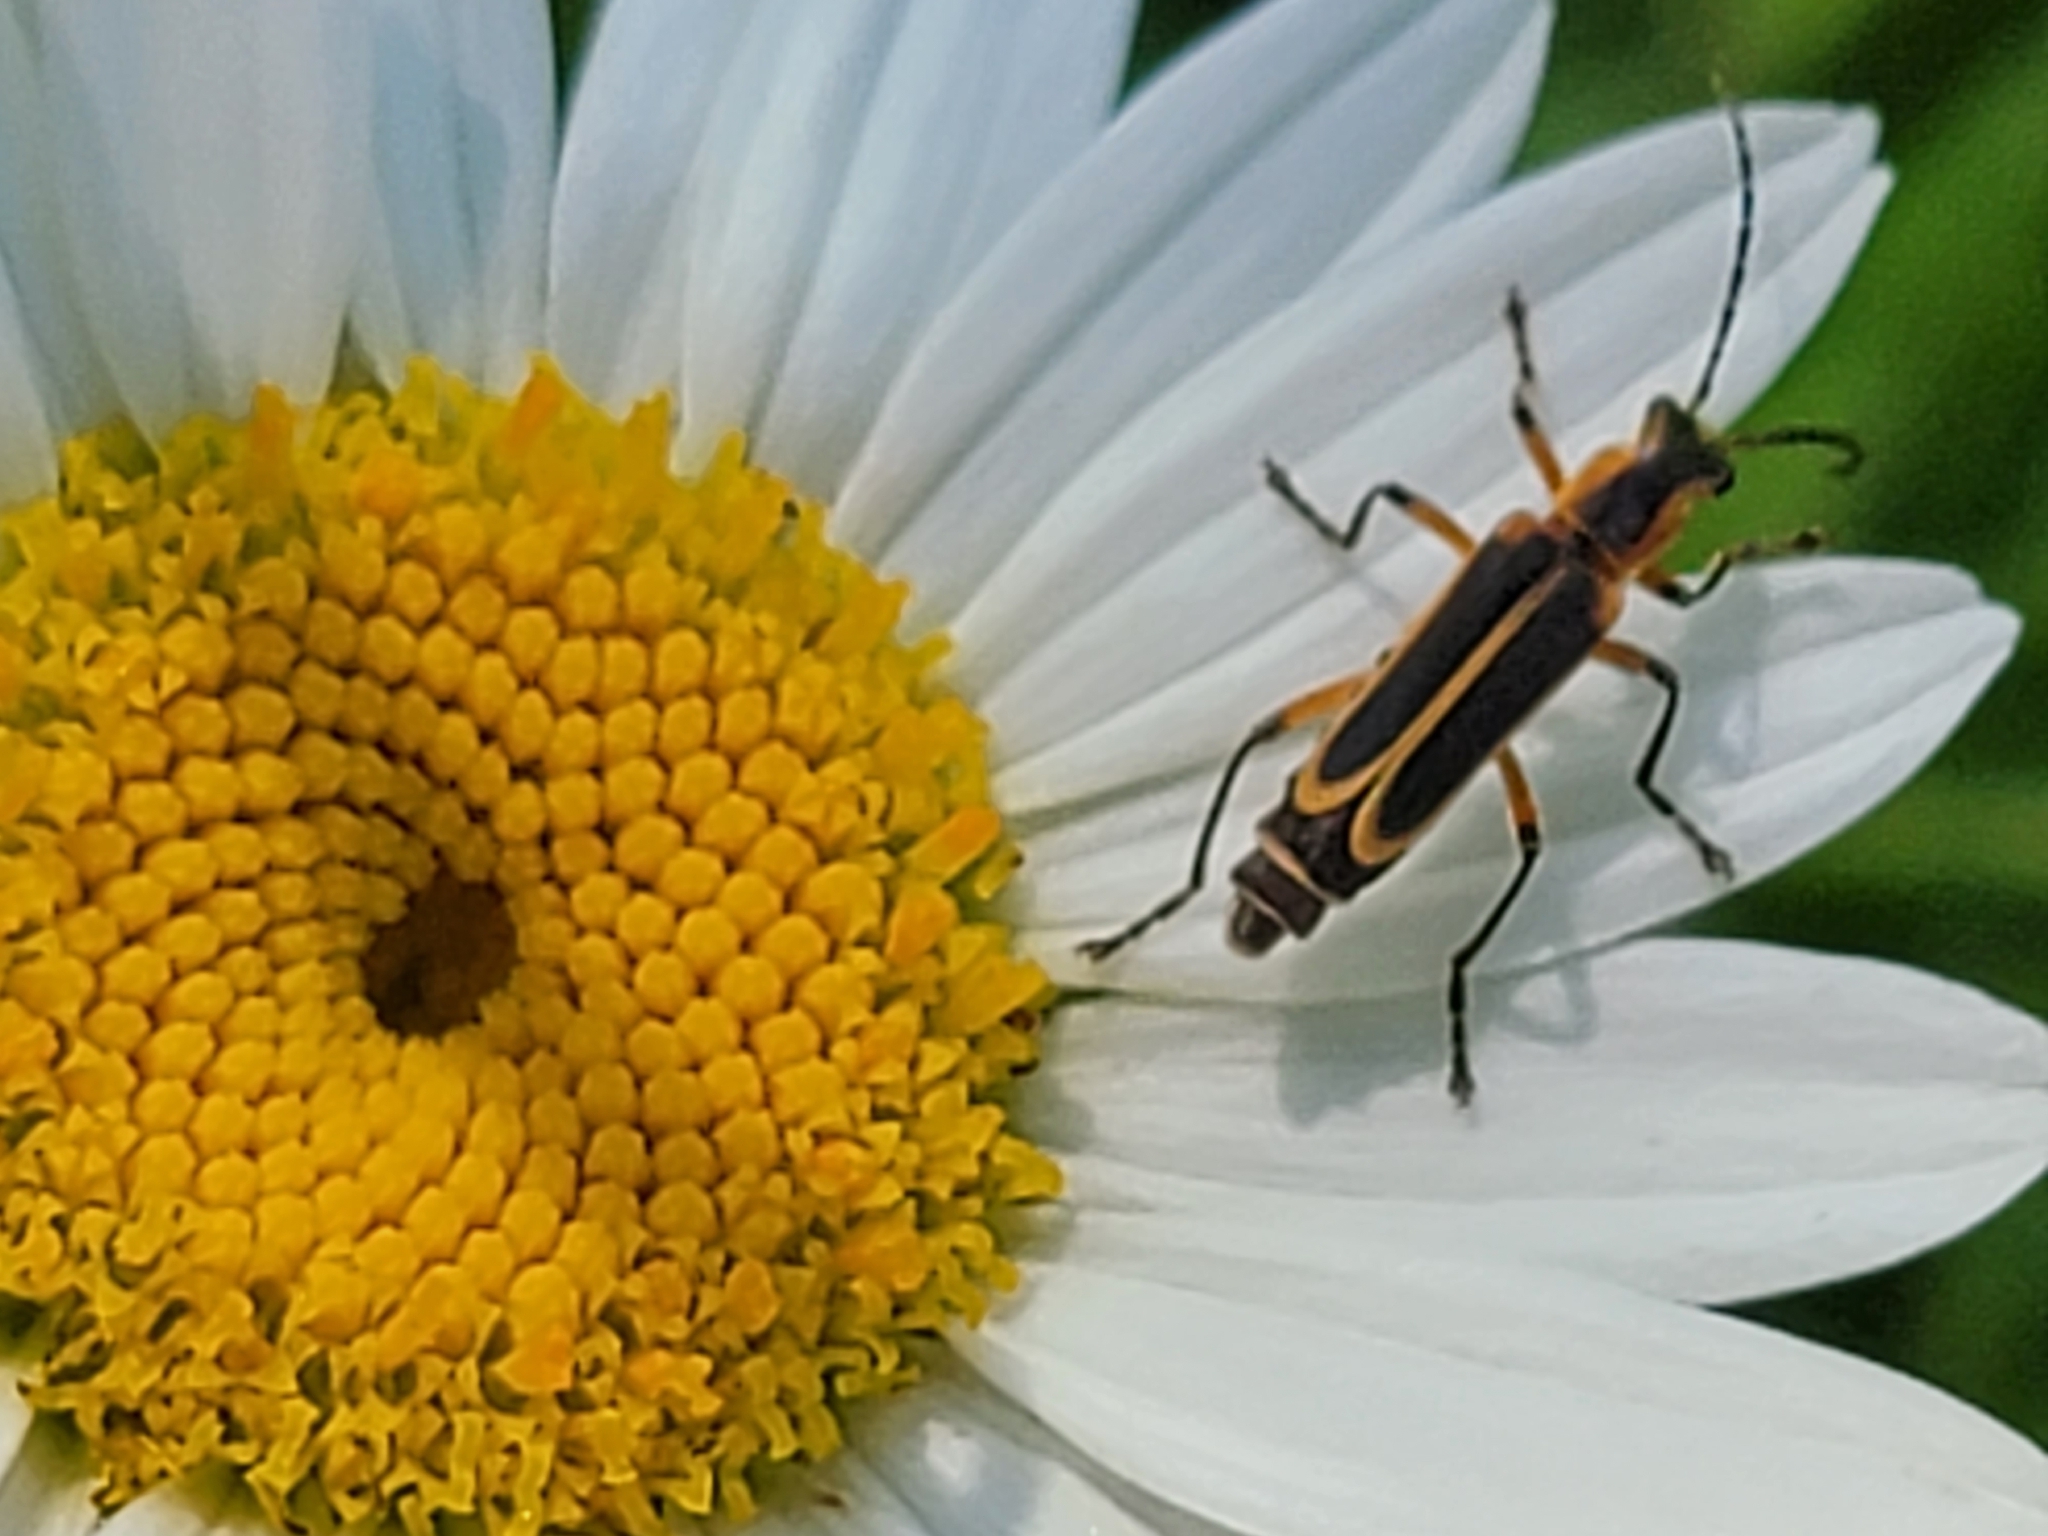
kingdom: Animalia
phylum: Arthropoda
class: Insecta
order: Coleoptera
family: Cantharidae
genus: Chauliognathus
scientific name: Chauliognathus marginatus
